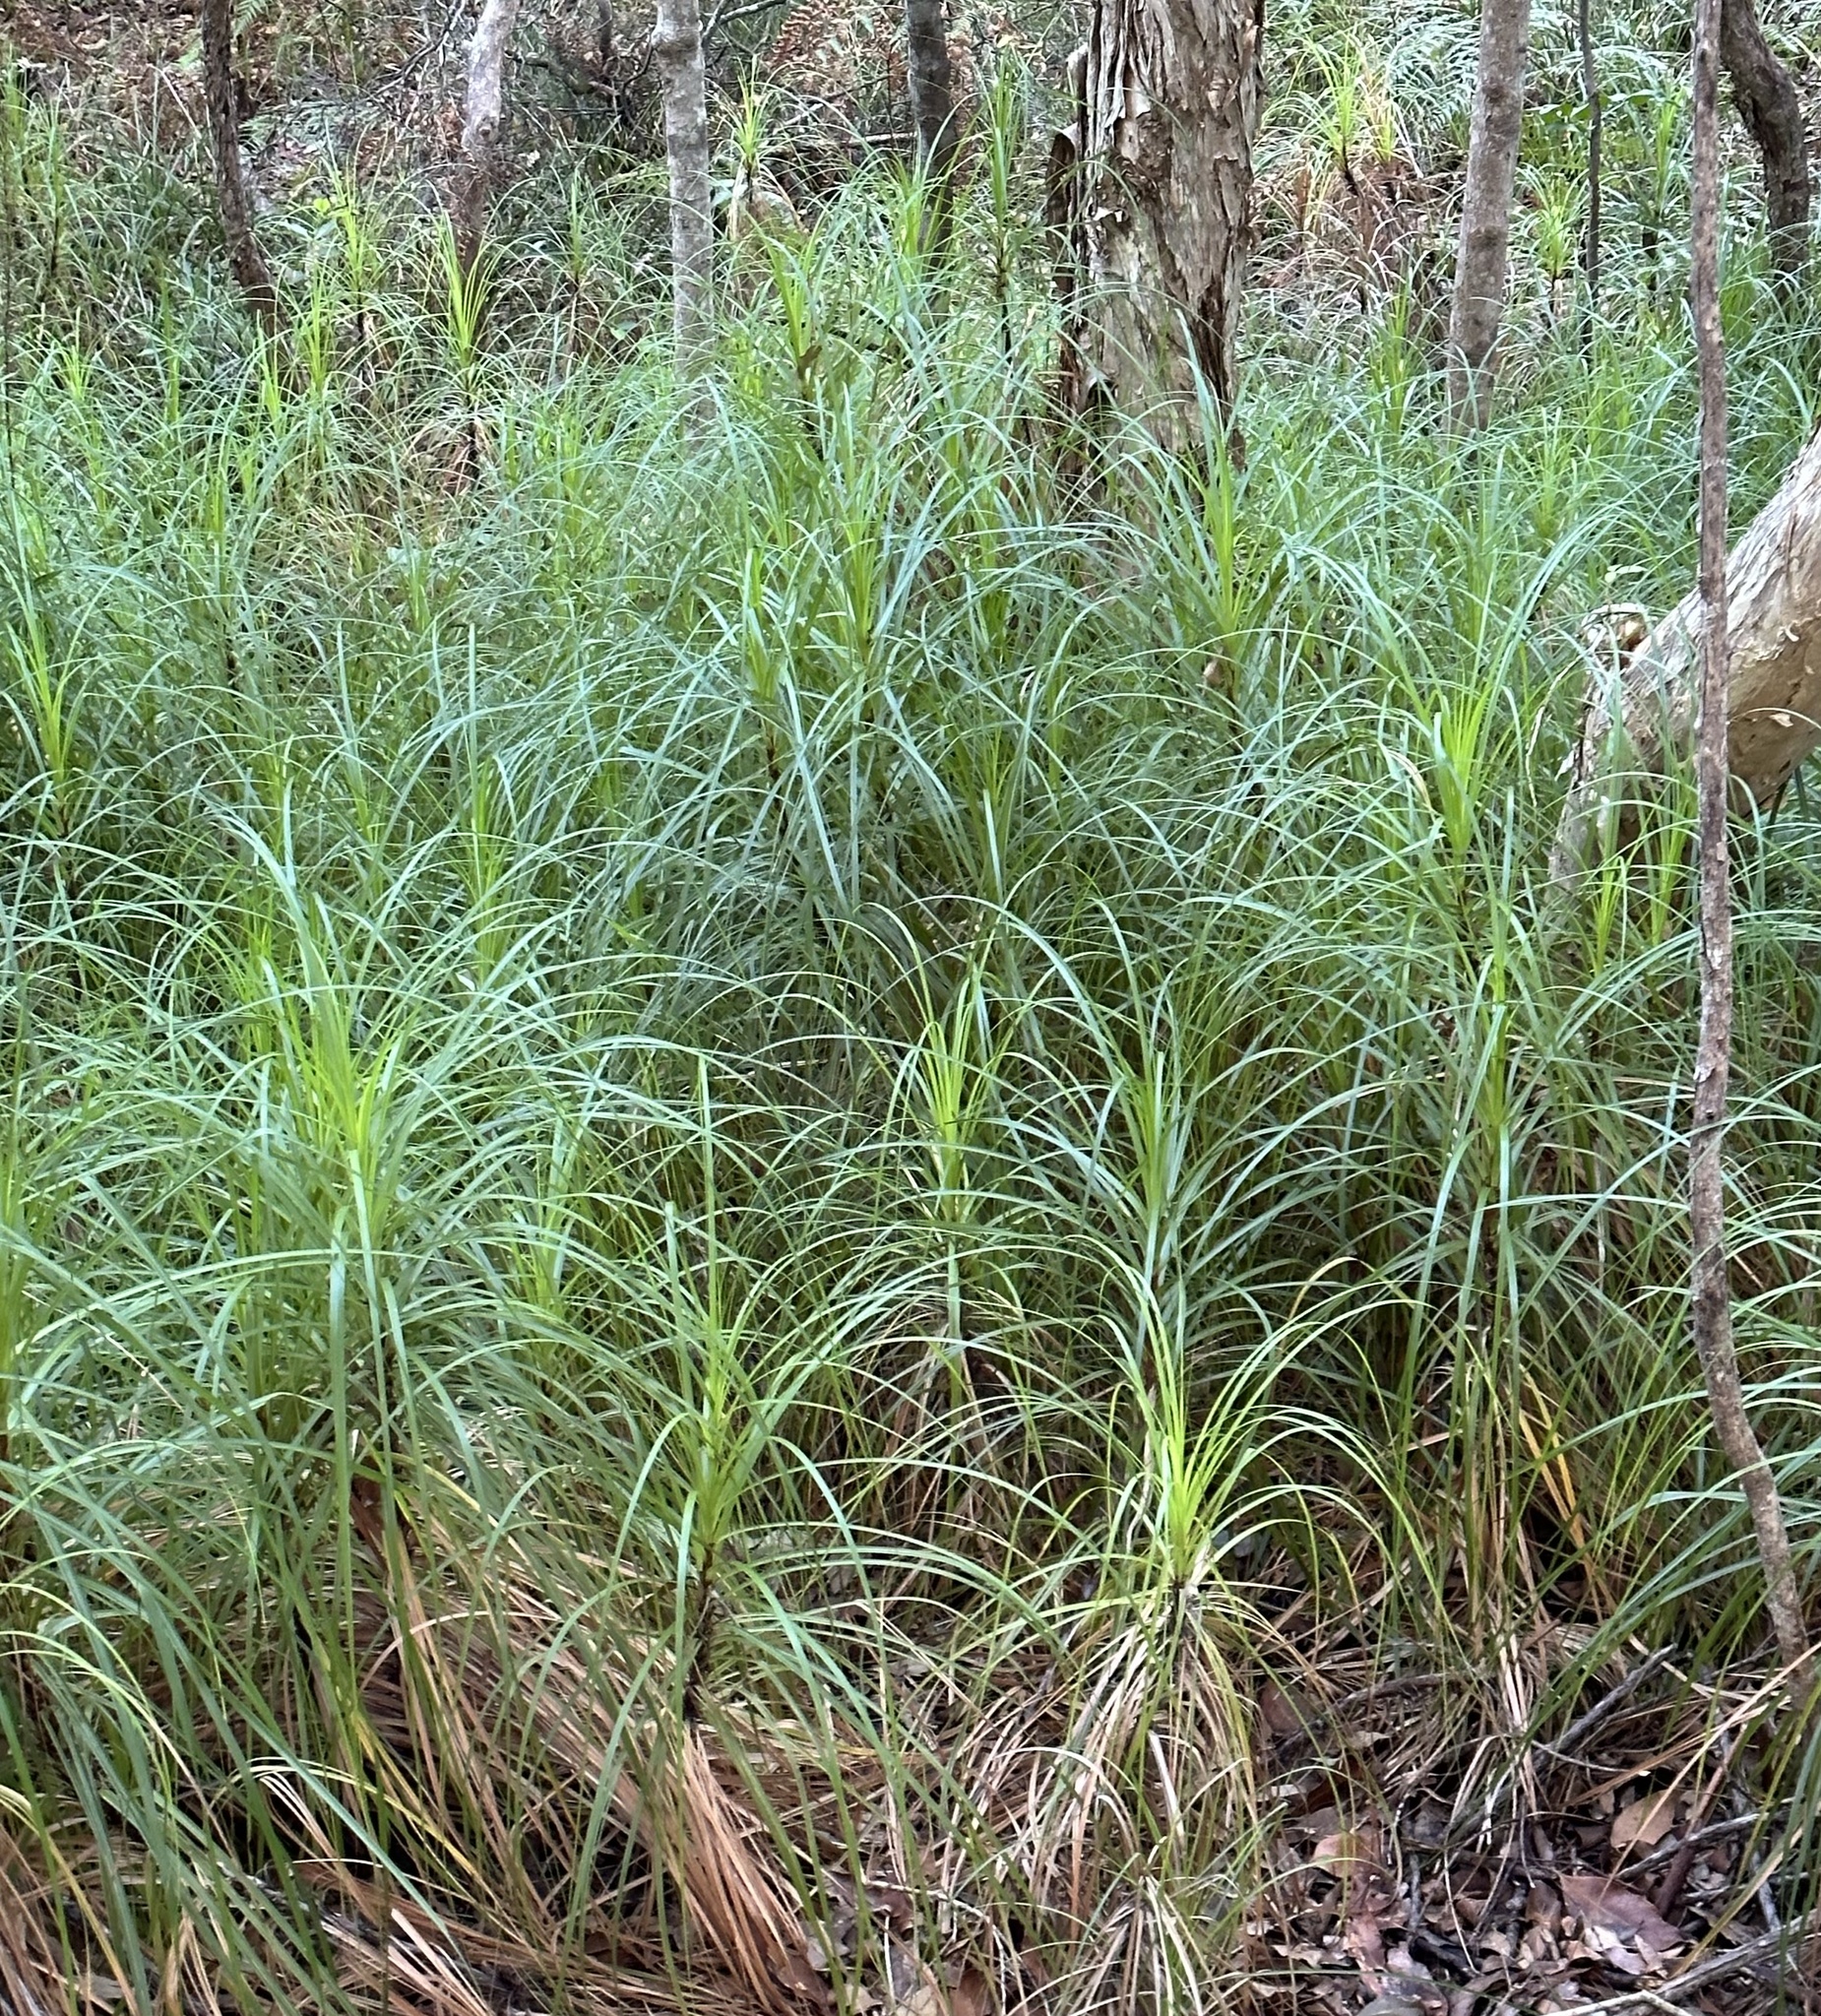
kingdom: Plantae
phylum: Tracheophyta
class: Liliopsida
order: Poales
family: Cyperaceae
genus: Gahnia
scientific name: Gahnia clarkei
